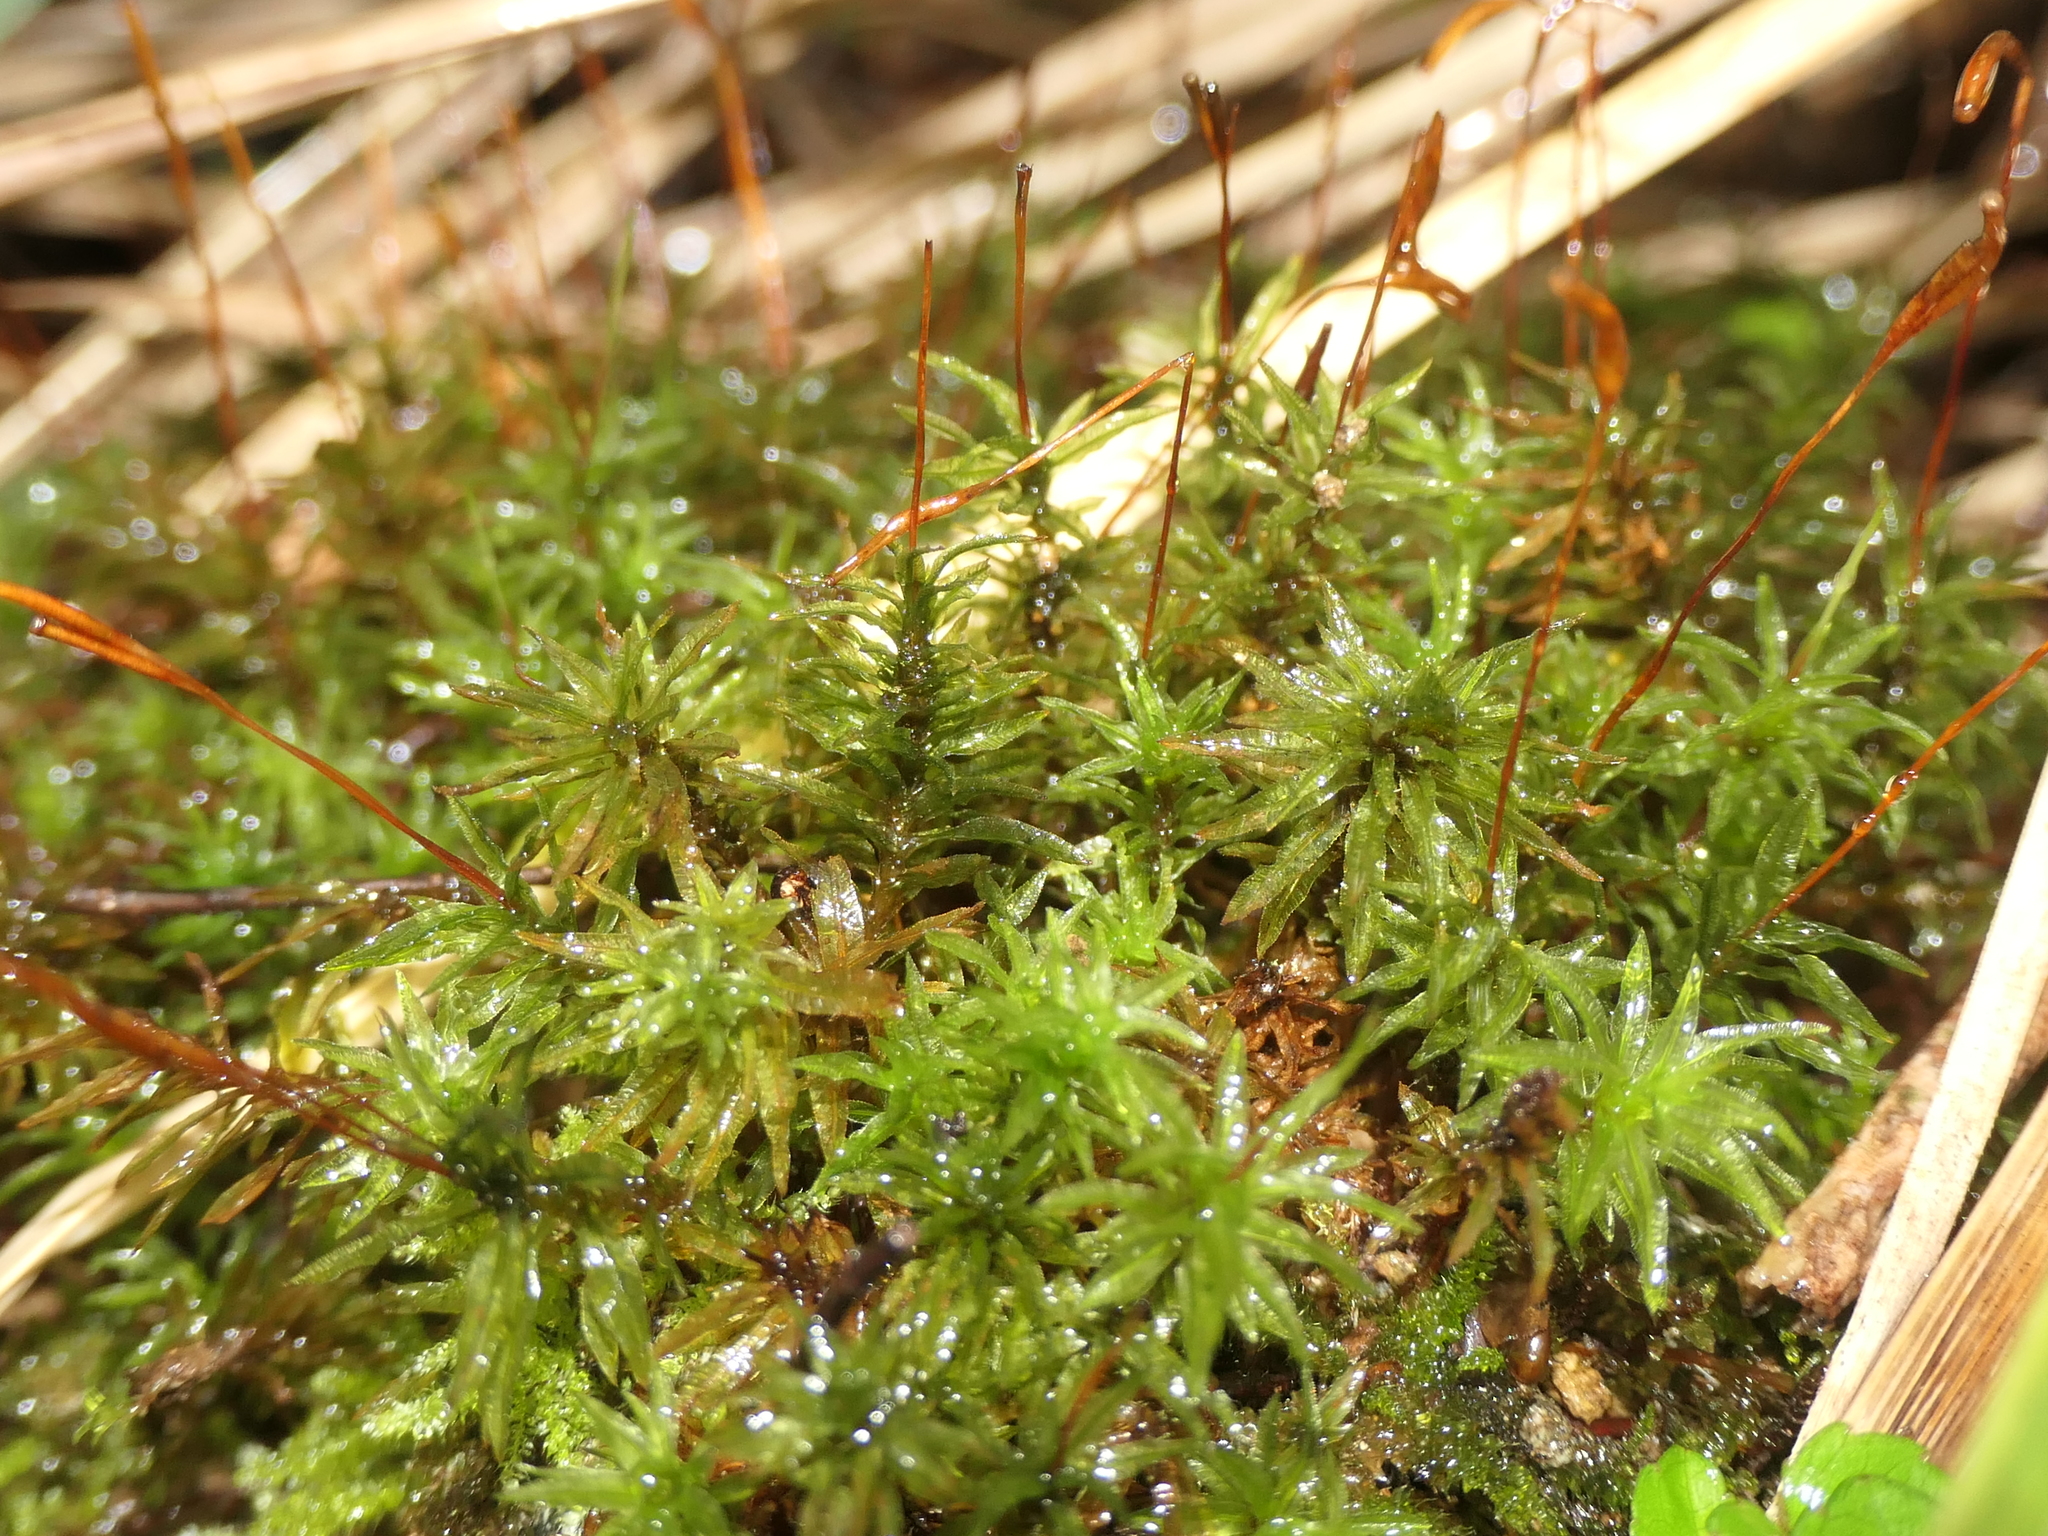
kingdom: Plantae
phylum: Bryophyta
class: Polytrichopsida
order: Polytrichales
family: Polytrichaceae
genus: Atrichum
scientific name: Atrichum androgynum
